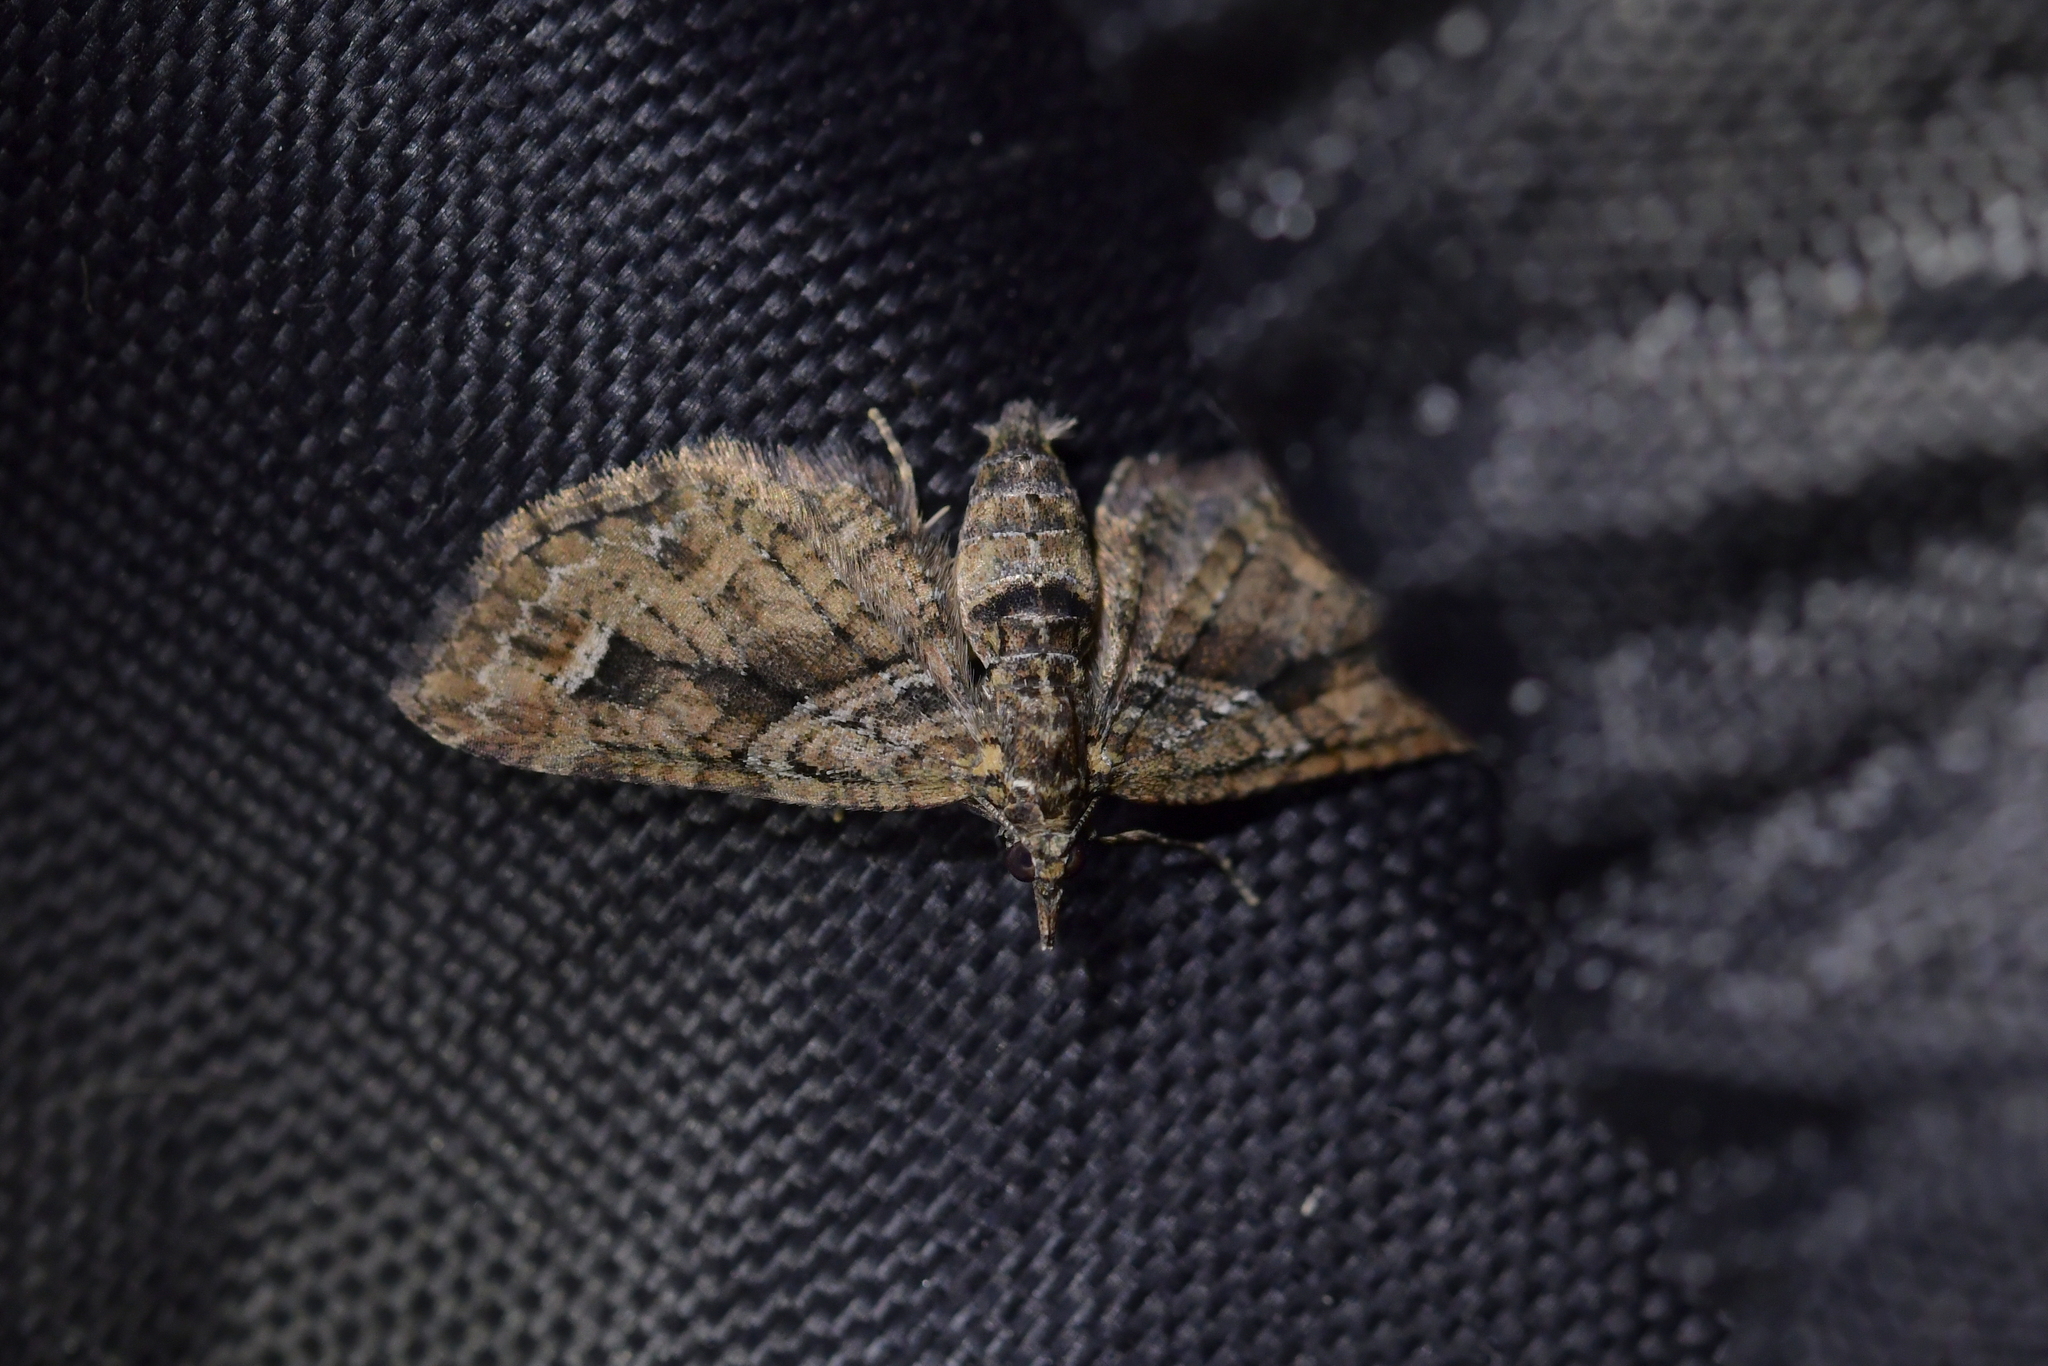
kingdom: Animalia
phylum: Arthropoda
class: Insecta
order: Lepidoptera
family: Geometridae
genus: Idaea
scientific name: Idaea mutanda
